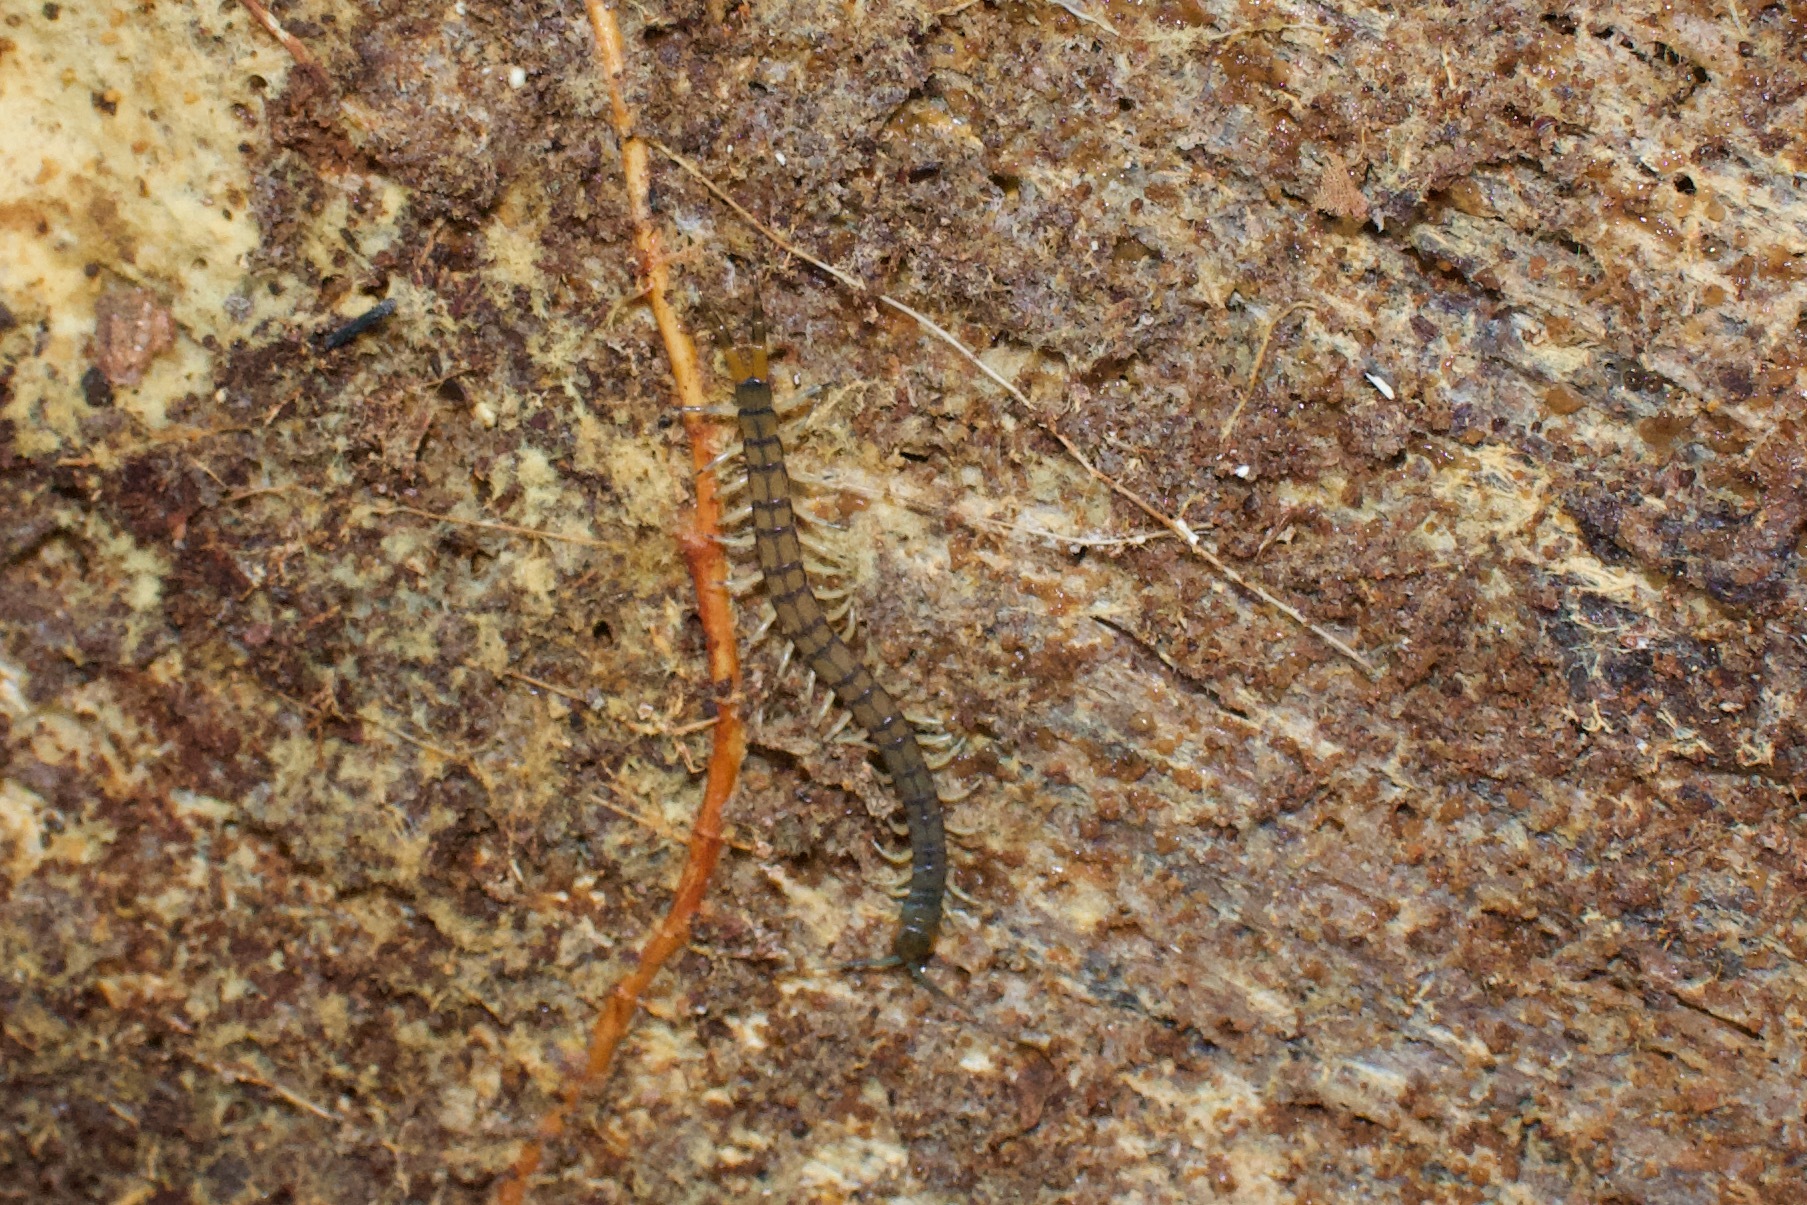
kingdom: Animalia
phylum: Arthropoda
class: Chilopoda
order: Scolopendromorpha
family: Scolopendridae
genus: Hemiscolopendra
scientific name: Hemiscolopendra marginata
